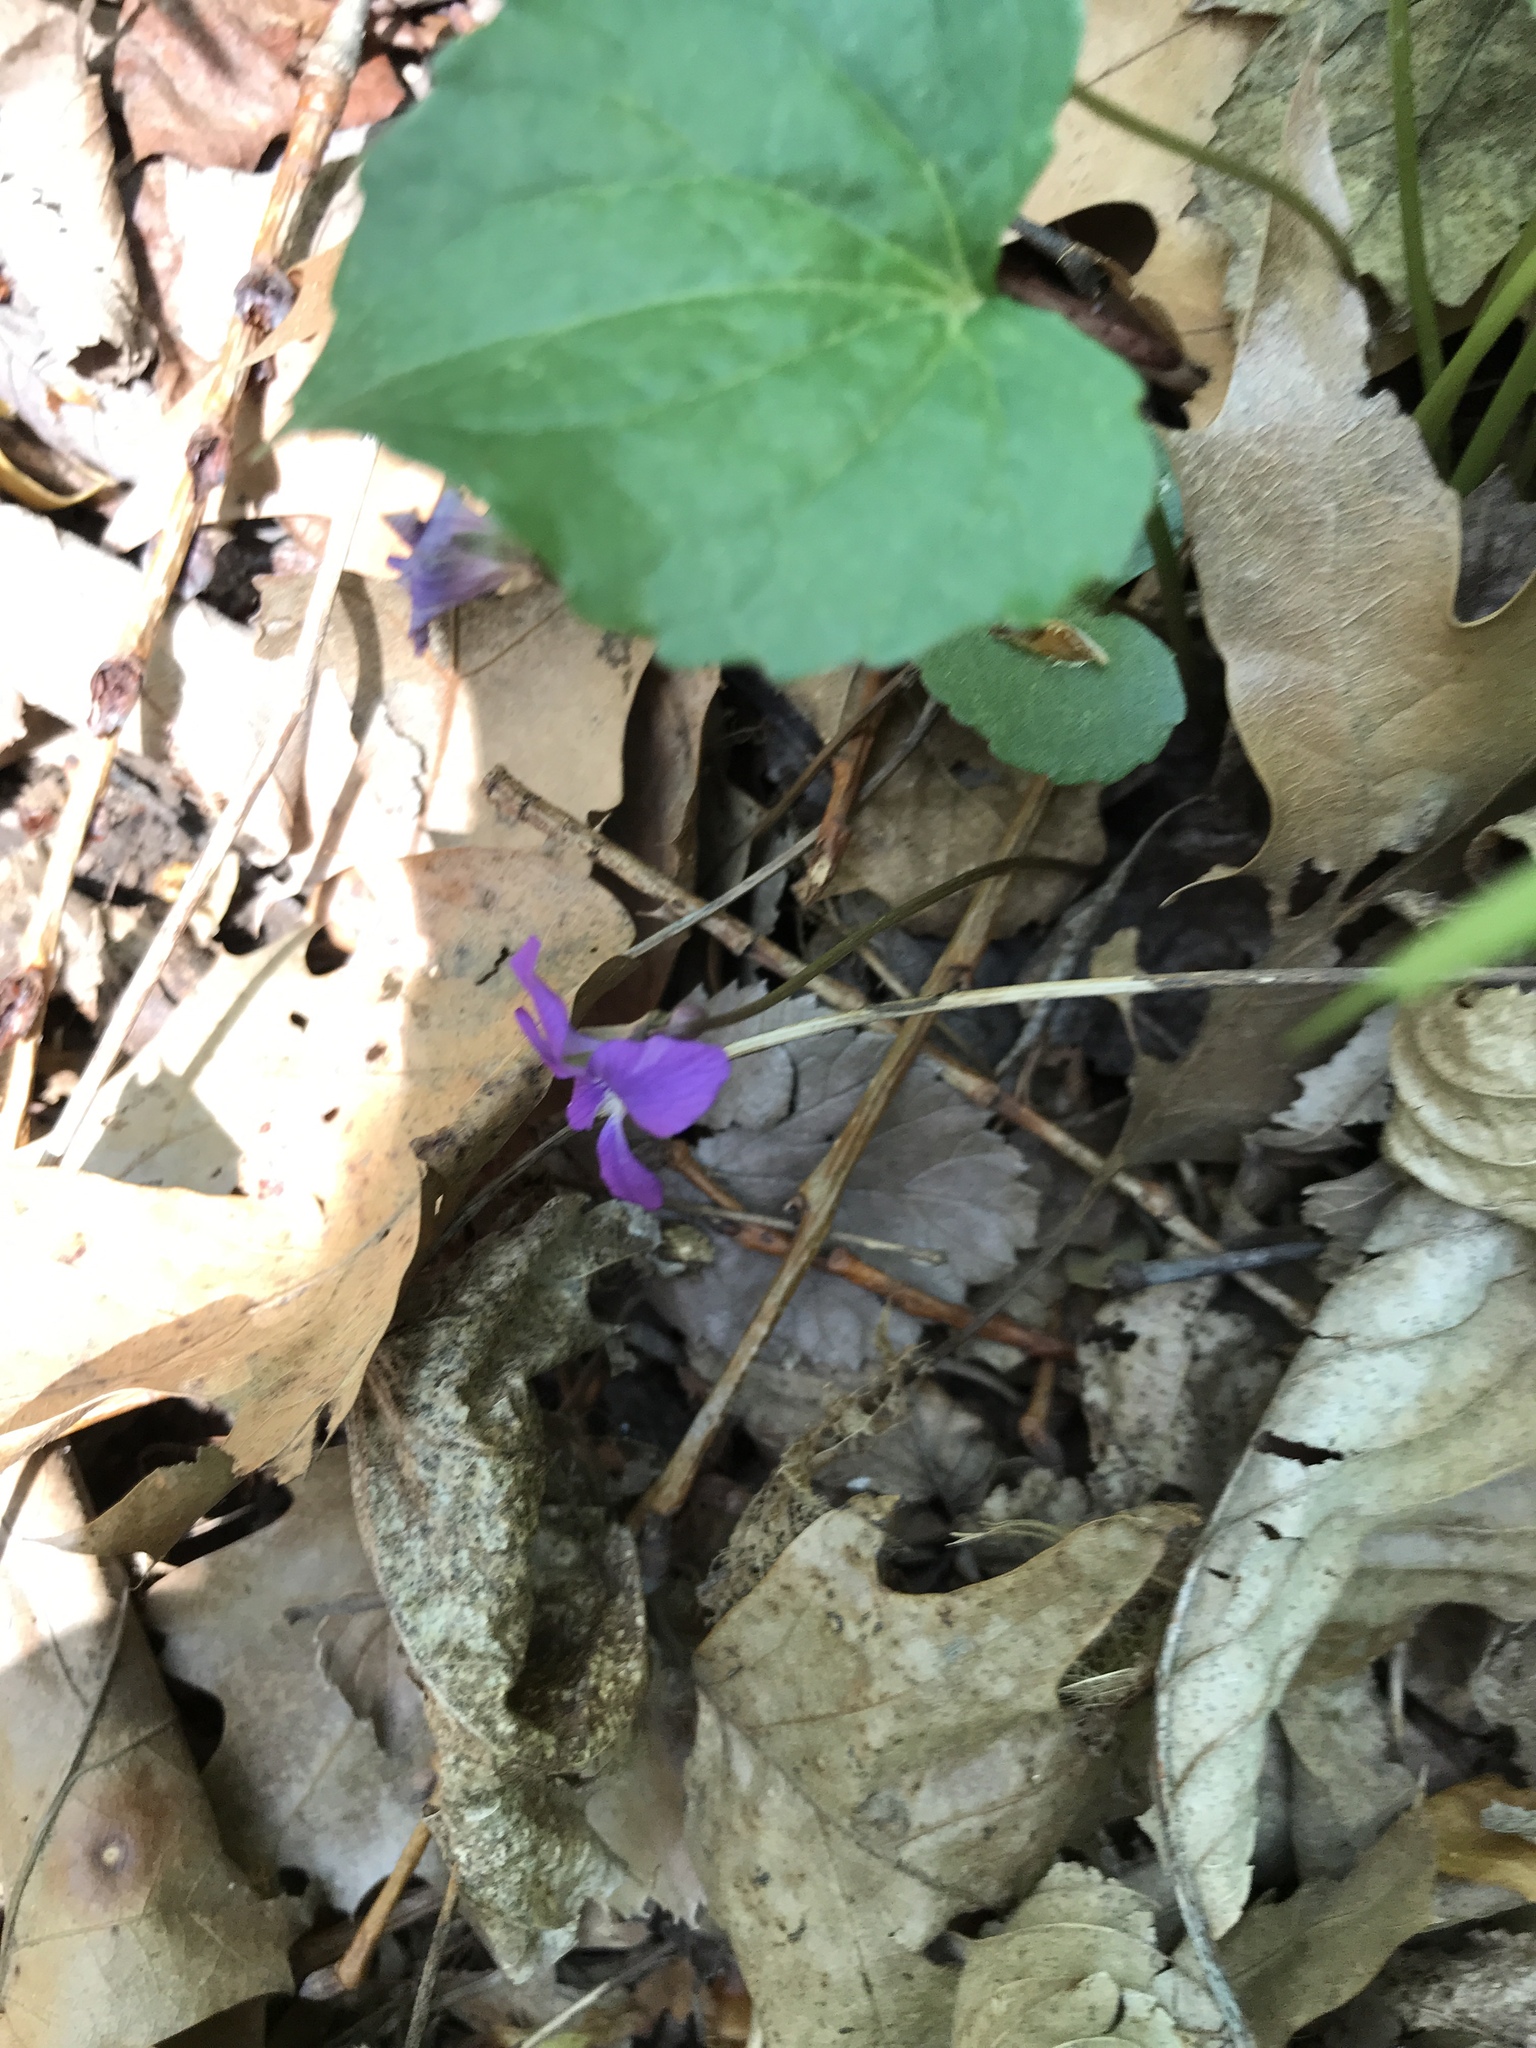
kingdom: Plantae
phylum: Tracheophyta
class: Magnoliopsida
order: Malpighiales
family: Violaceae
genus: Viola
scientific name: Viola sororia
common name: Dooryard violet
